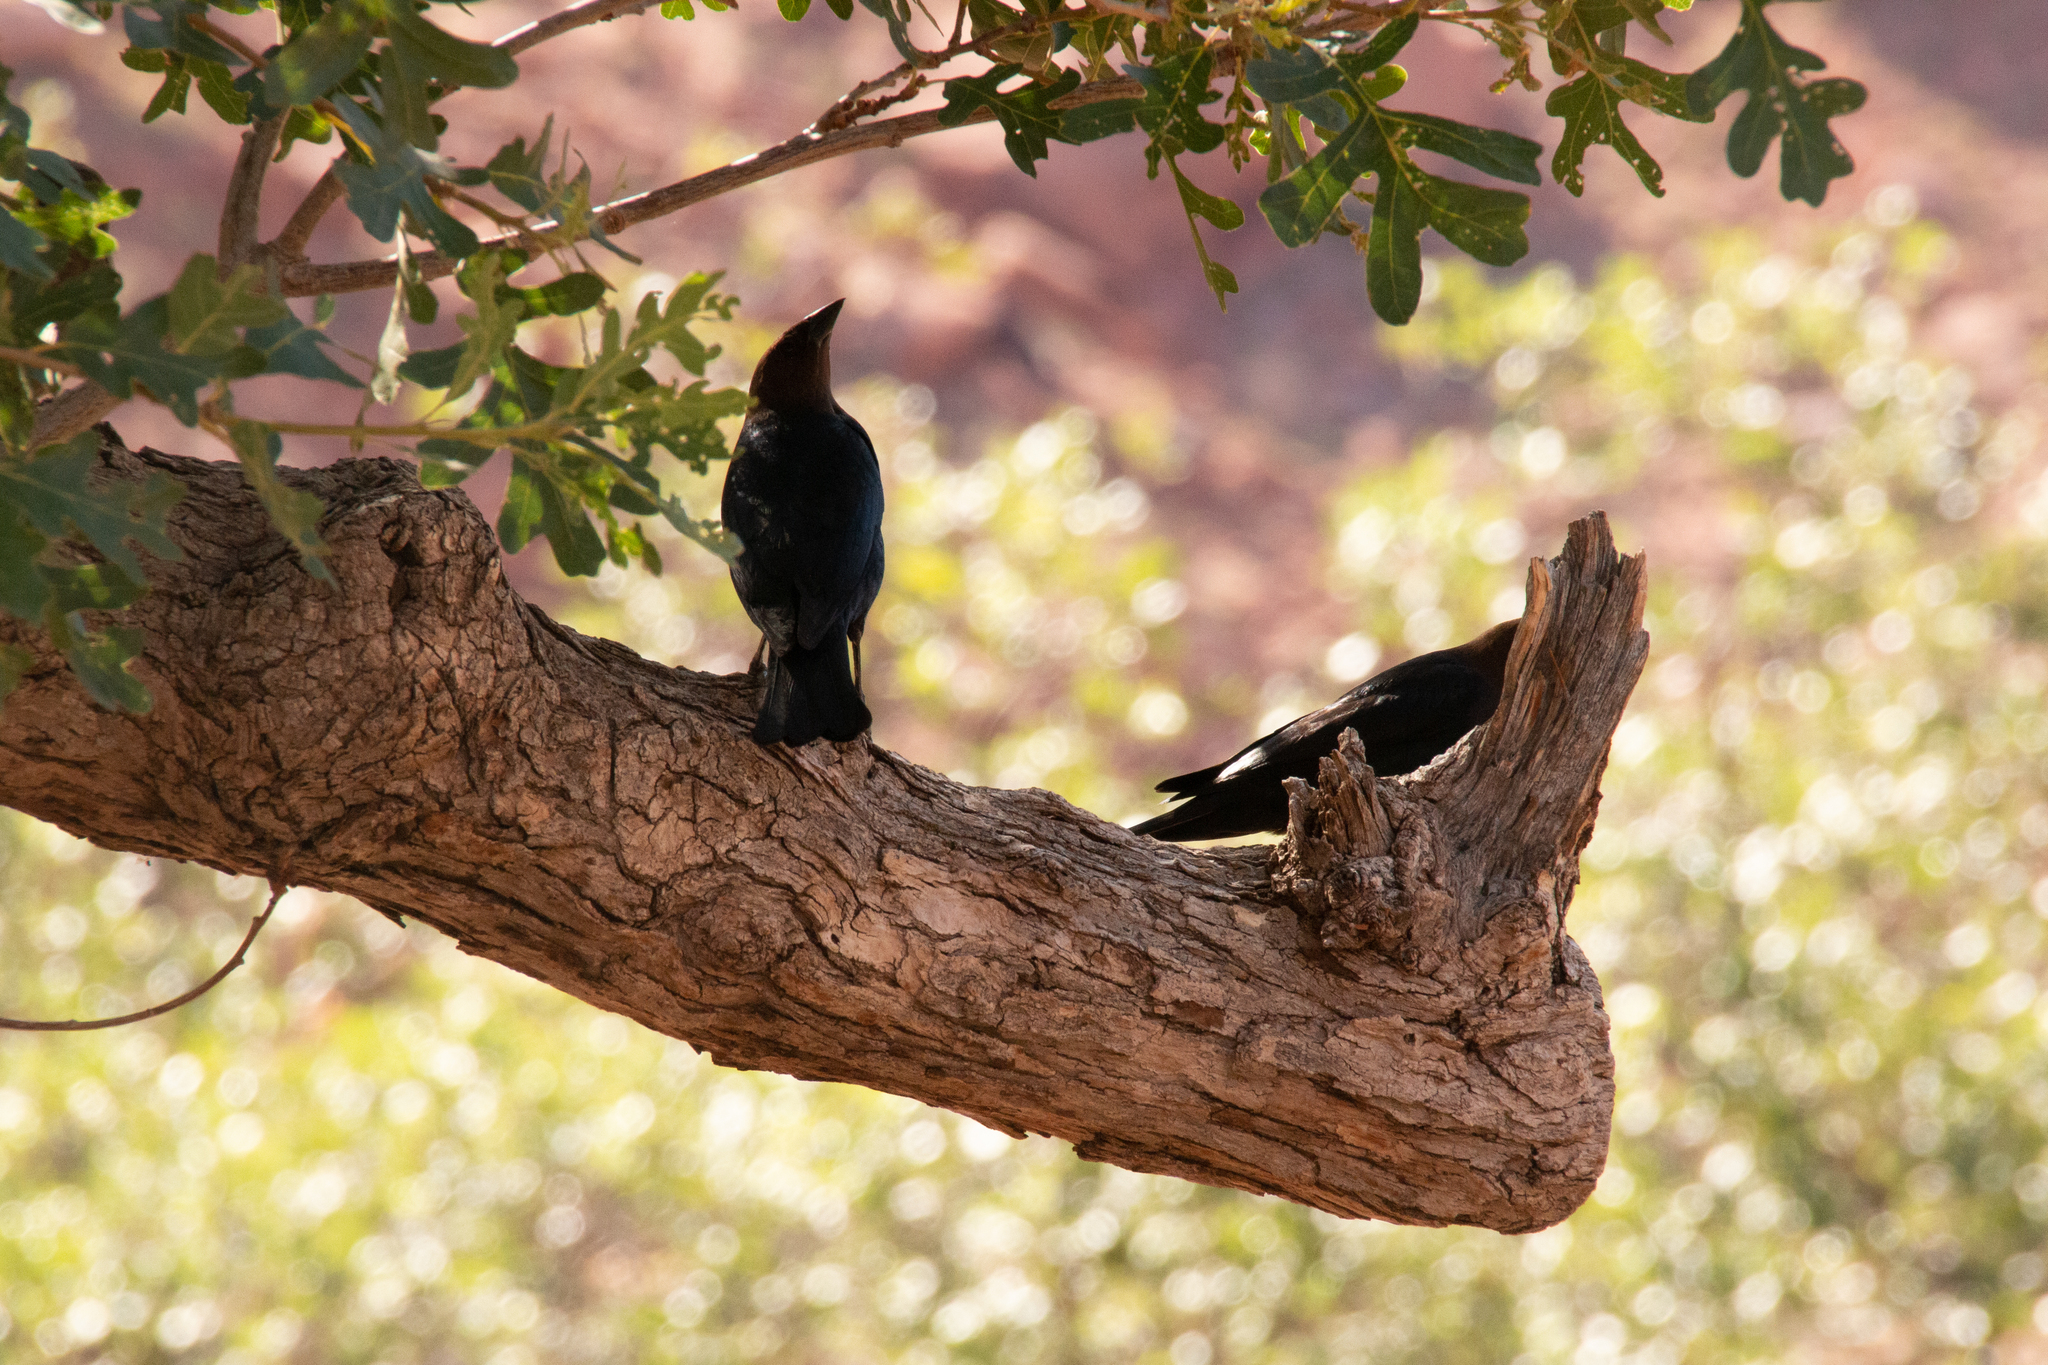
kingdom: Animalia
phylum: Chordata
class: Aves
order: Passeriformes
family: Icteridae
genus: Molothrus
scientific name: Molothrus ater
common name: Brown-headed cowbird
